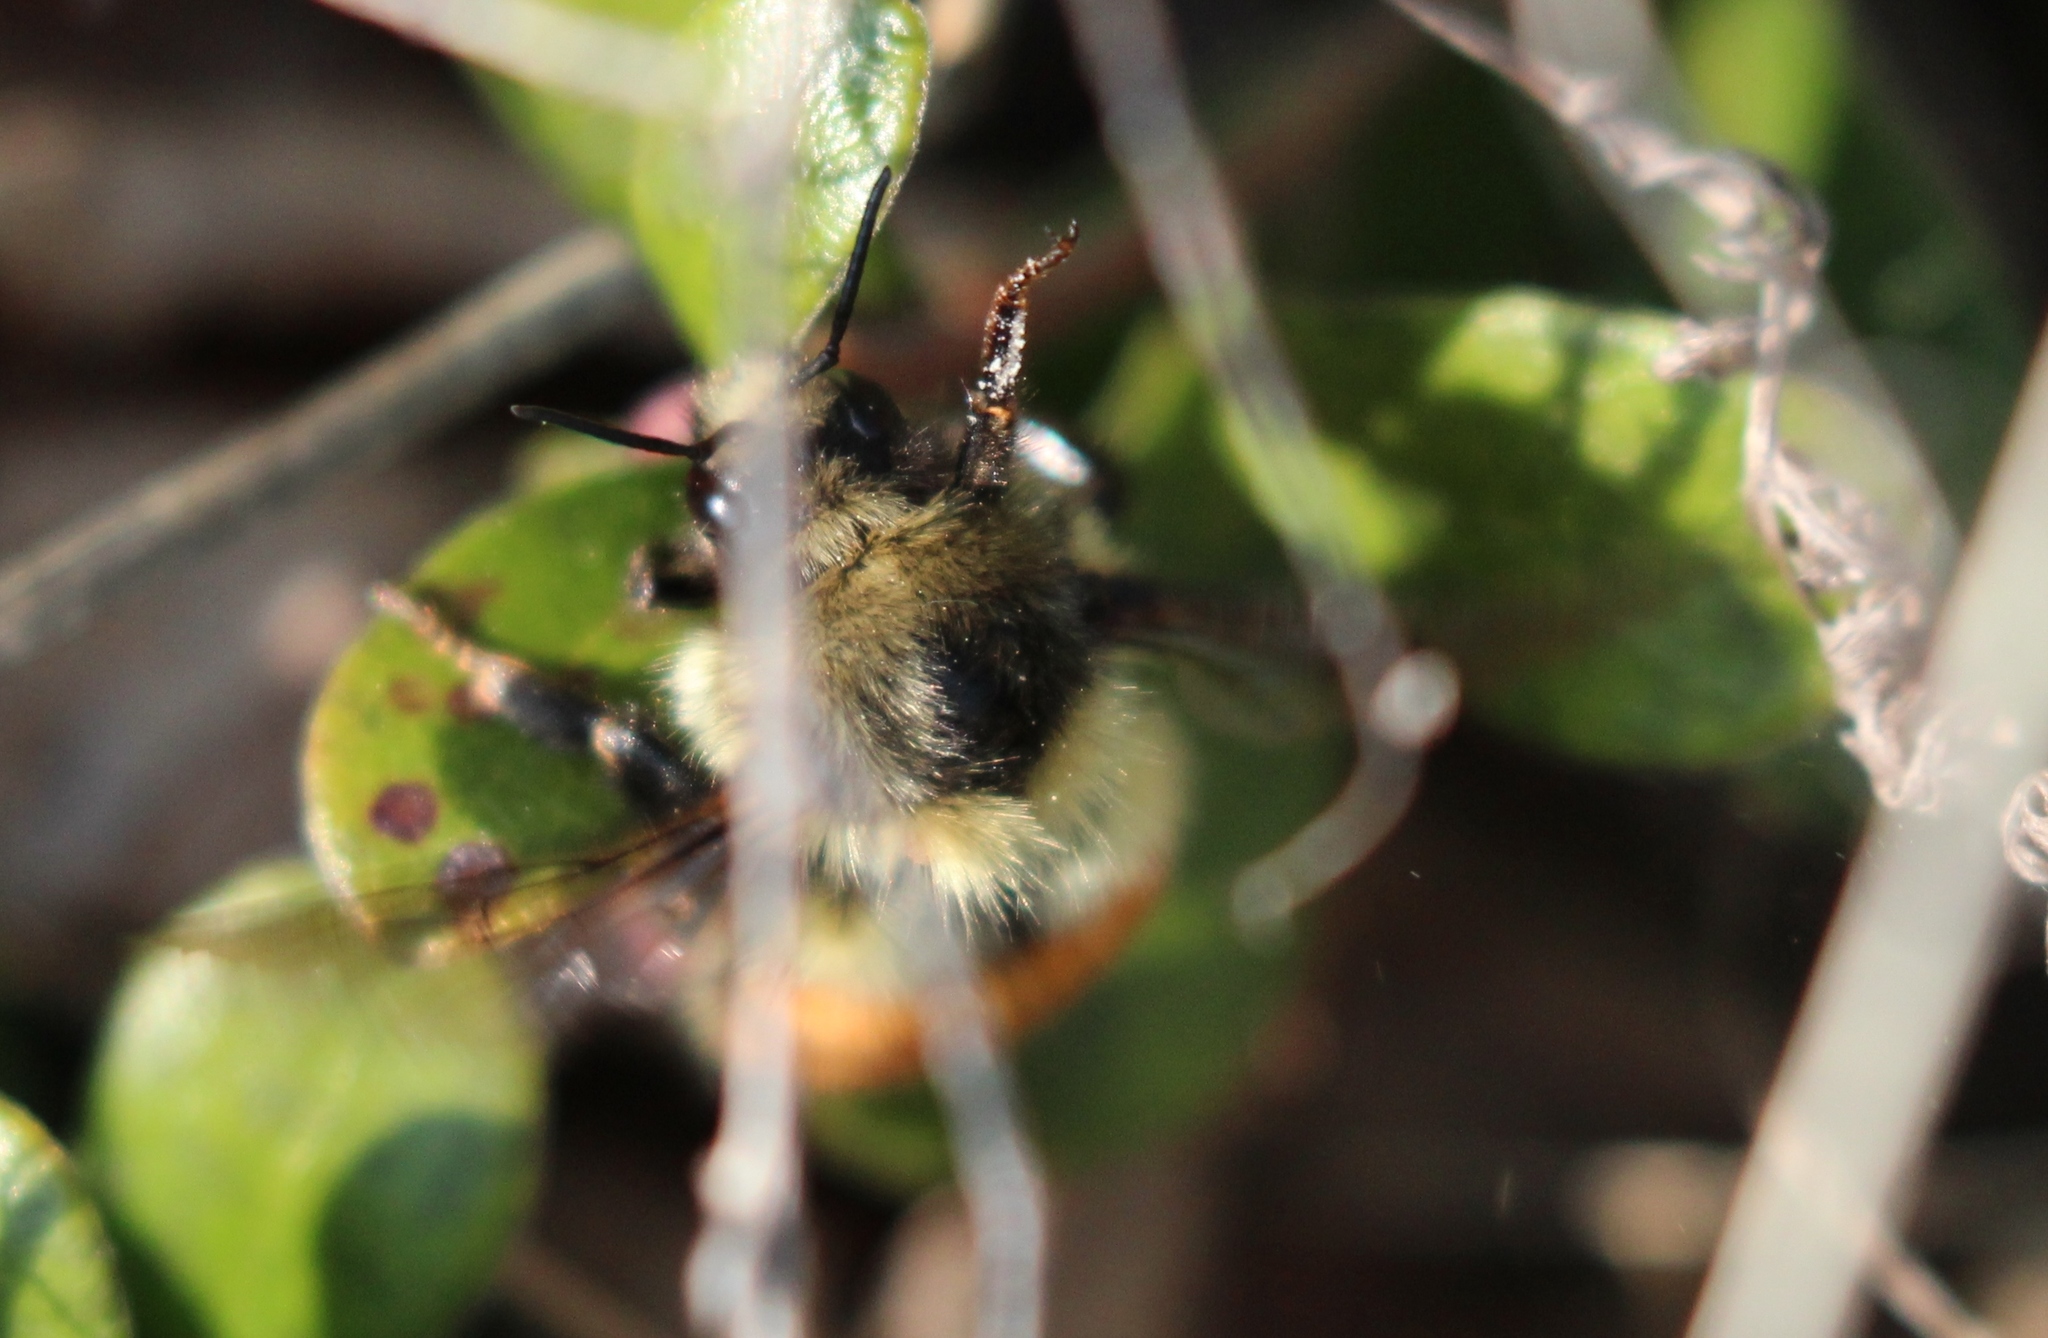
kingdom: Animalia
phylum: Arthropoda
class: Insecta
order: Hymenoptera
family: Apidae
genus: Bombus
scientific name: Bombus melanopygus
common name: Black tail bumble bee
